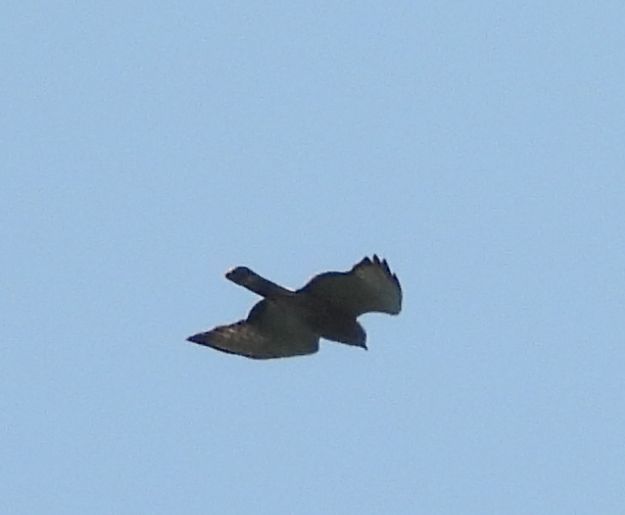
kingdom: Animalia
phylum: Chordata
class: Aves
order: Accipitriformes
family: Accipitridae
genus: Buteo
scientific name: Buteo platypterus
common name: Broad-winged hawk
